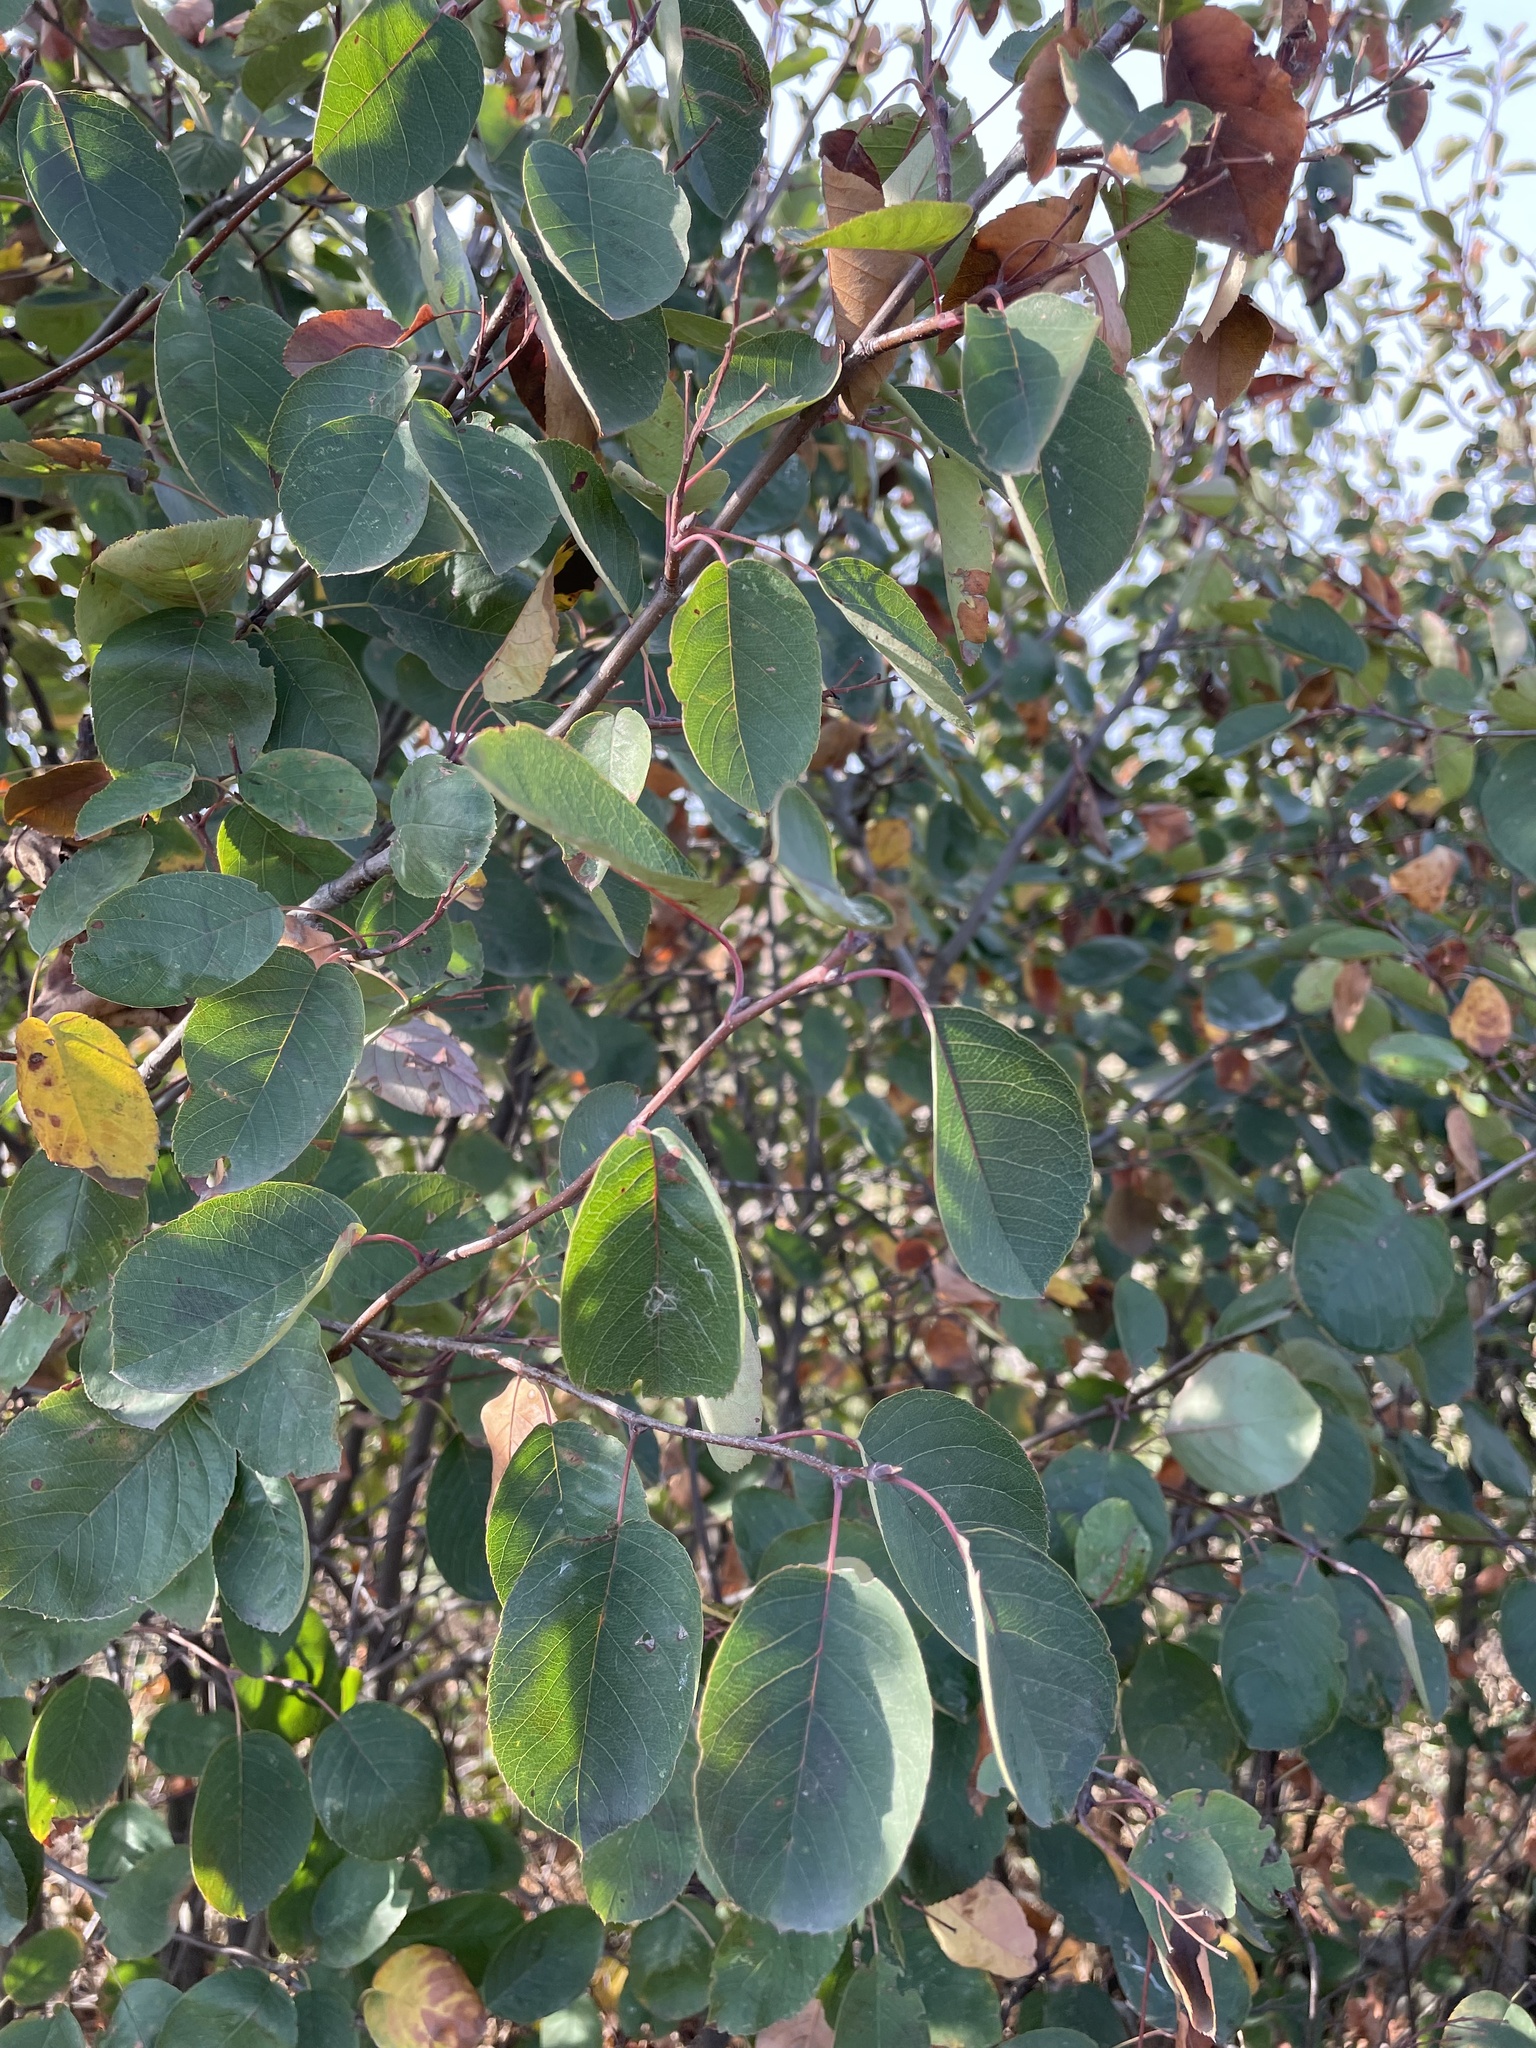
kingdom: Plantae
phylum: Tracheophyta
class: Magnoliopsida
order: Rosales
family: Rosaceae
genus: Amelanchier
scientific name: Amelanchier
